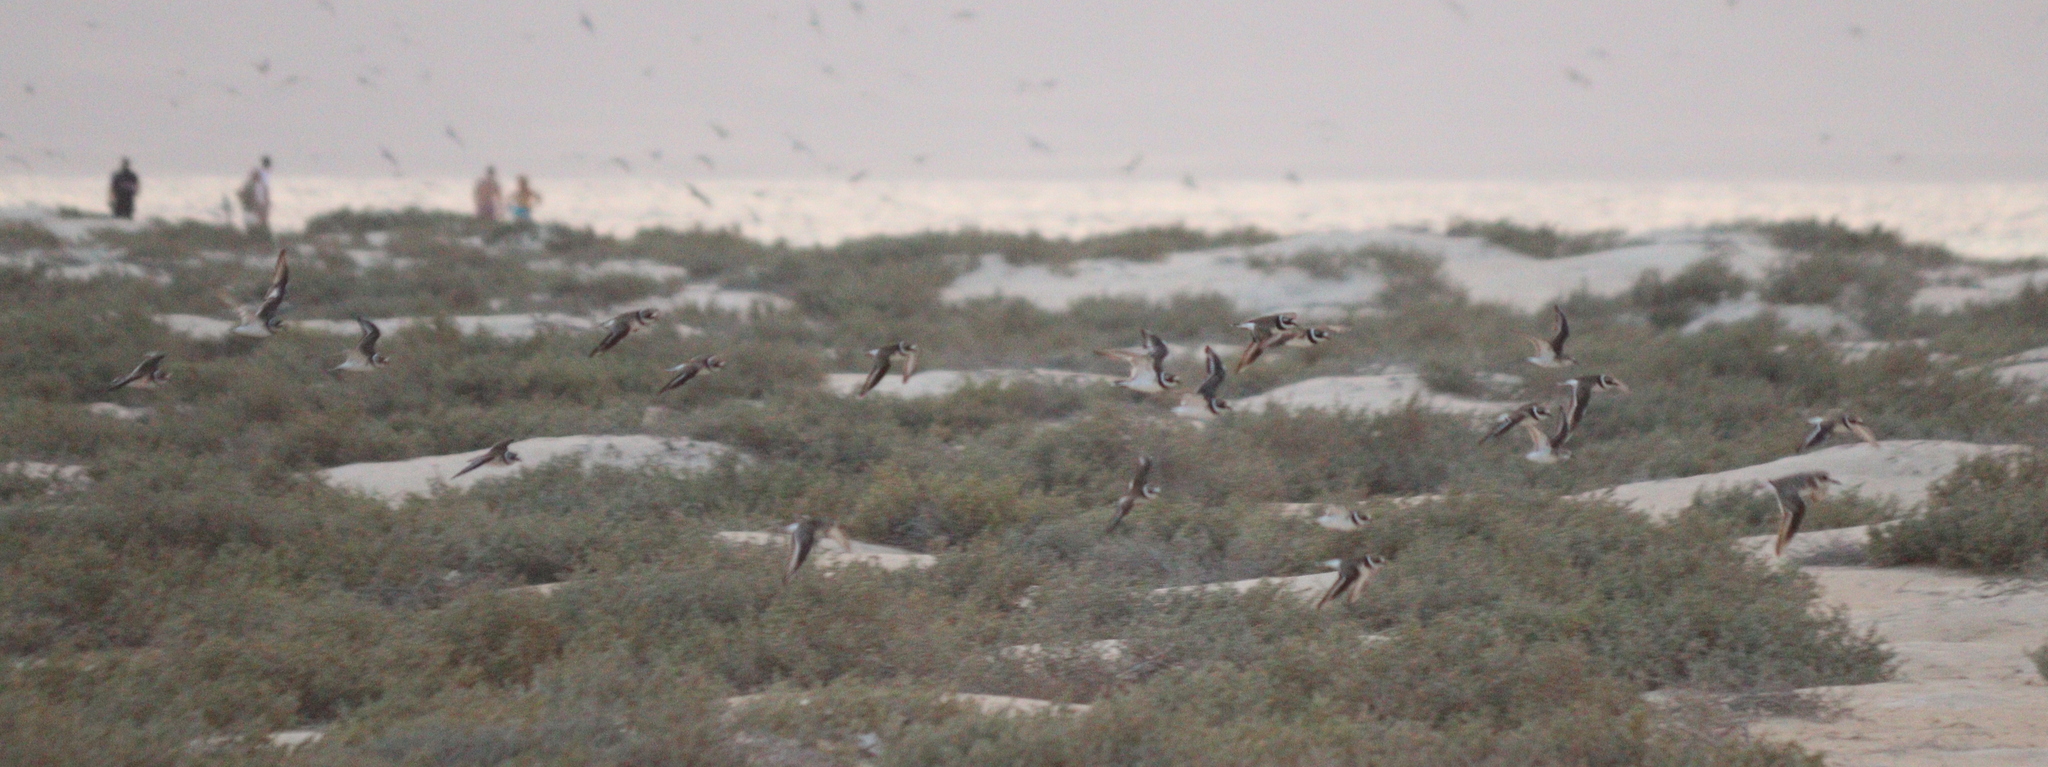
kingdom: Animalia
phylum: Chordata
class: Aves
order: Charadriiformes
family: Charadriidae
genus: Charadrius
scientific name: Charadrius hiaticula
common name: Common ringed plover
